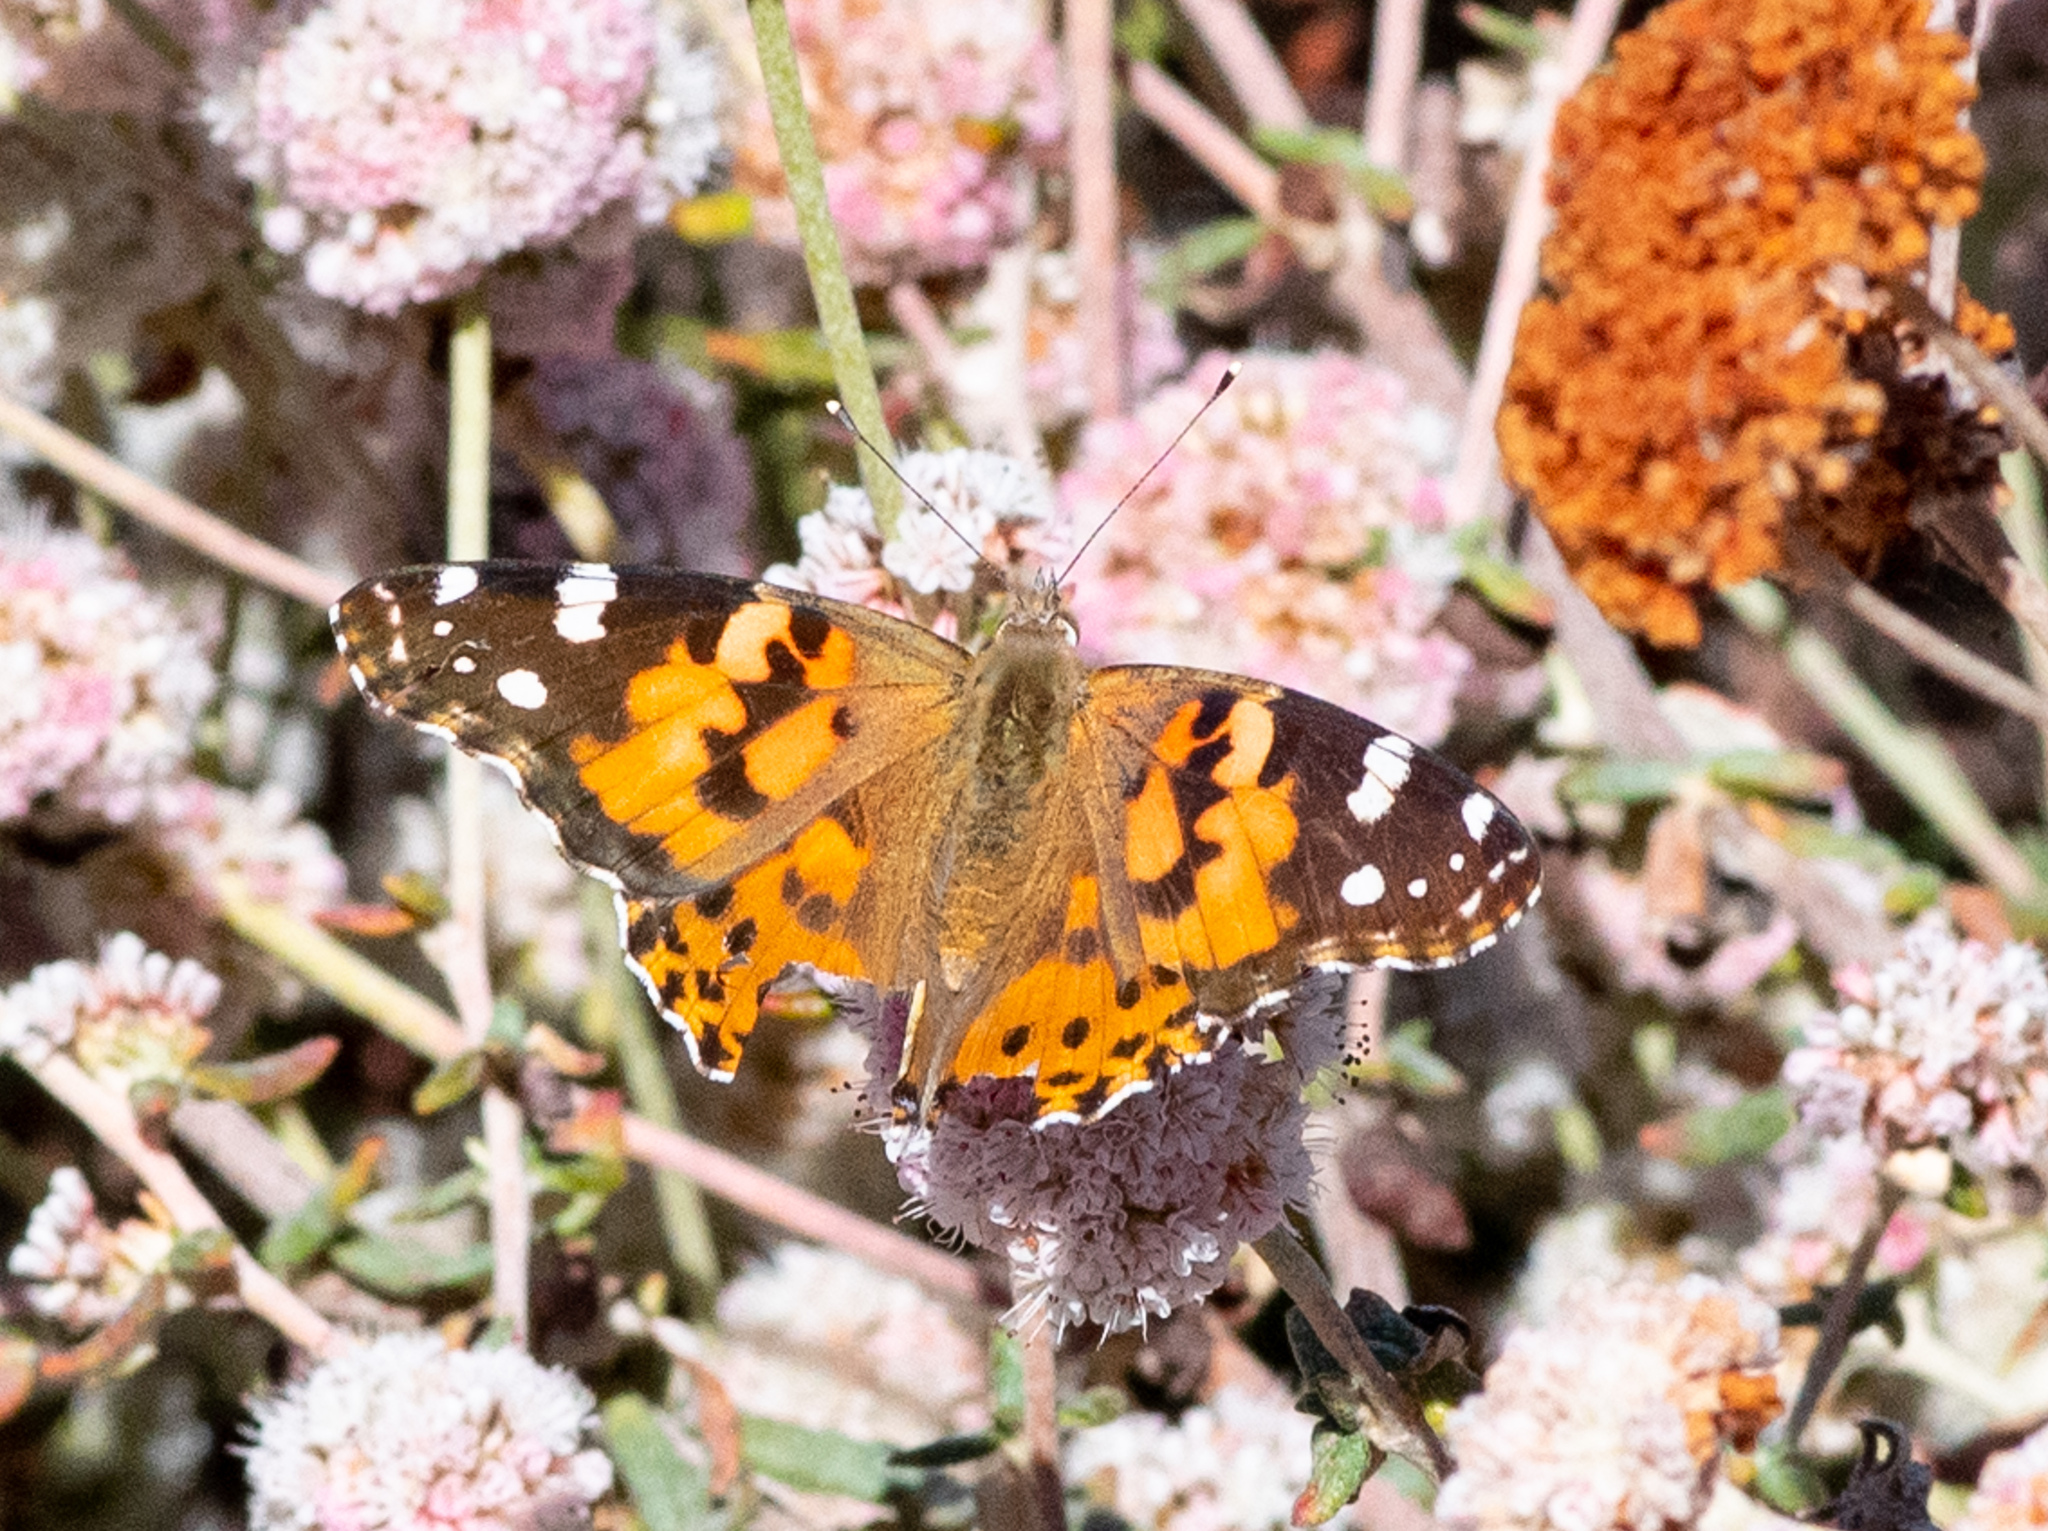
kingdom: Animalia
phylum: Arthropoda
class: Insecta
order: Lepidoptera
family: Nymphalidae
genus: Vanessa
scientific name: Vanessa cardui
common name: Painted lady
